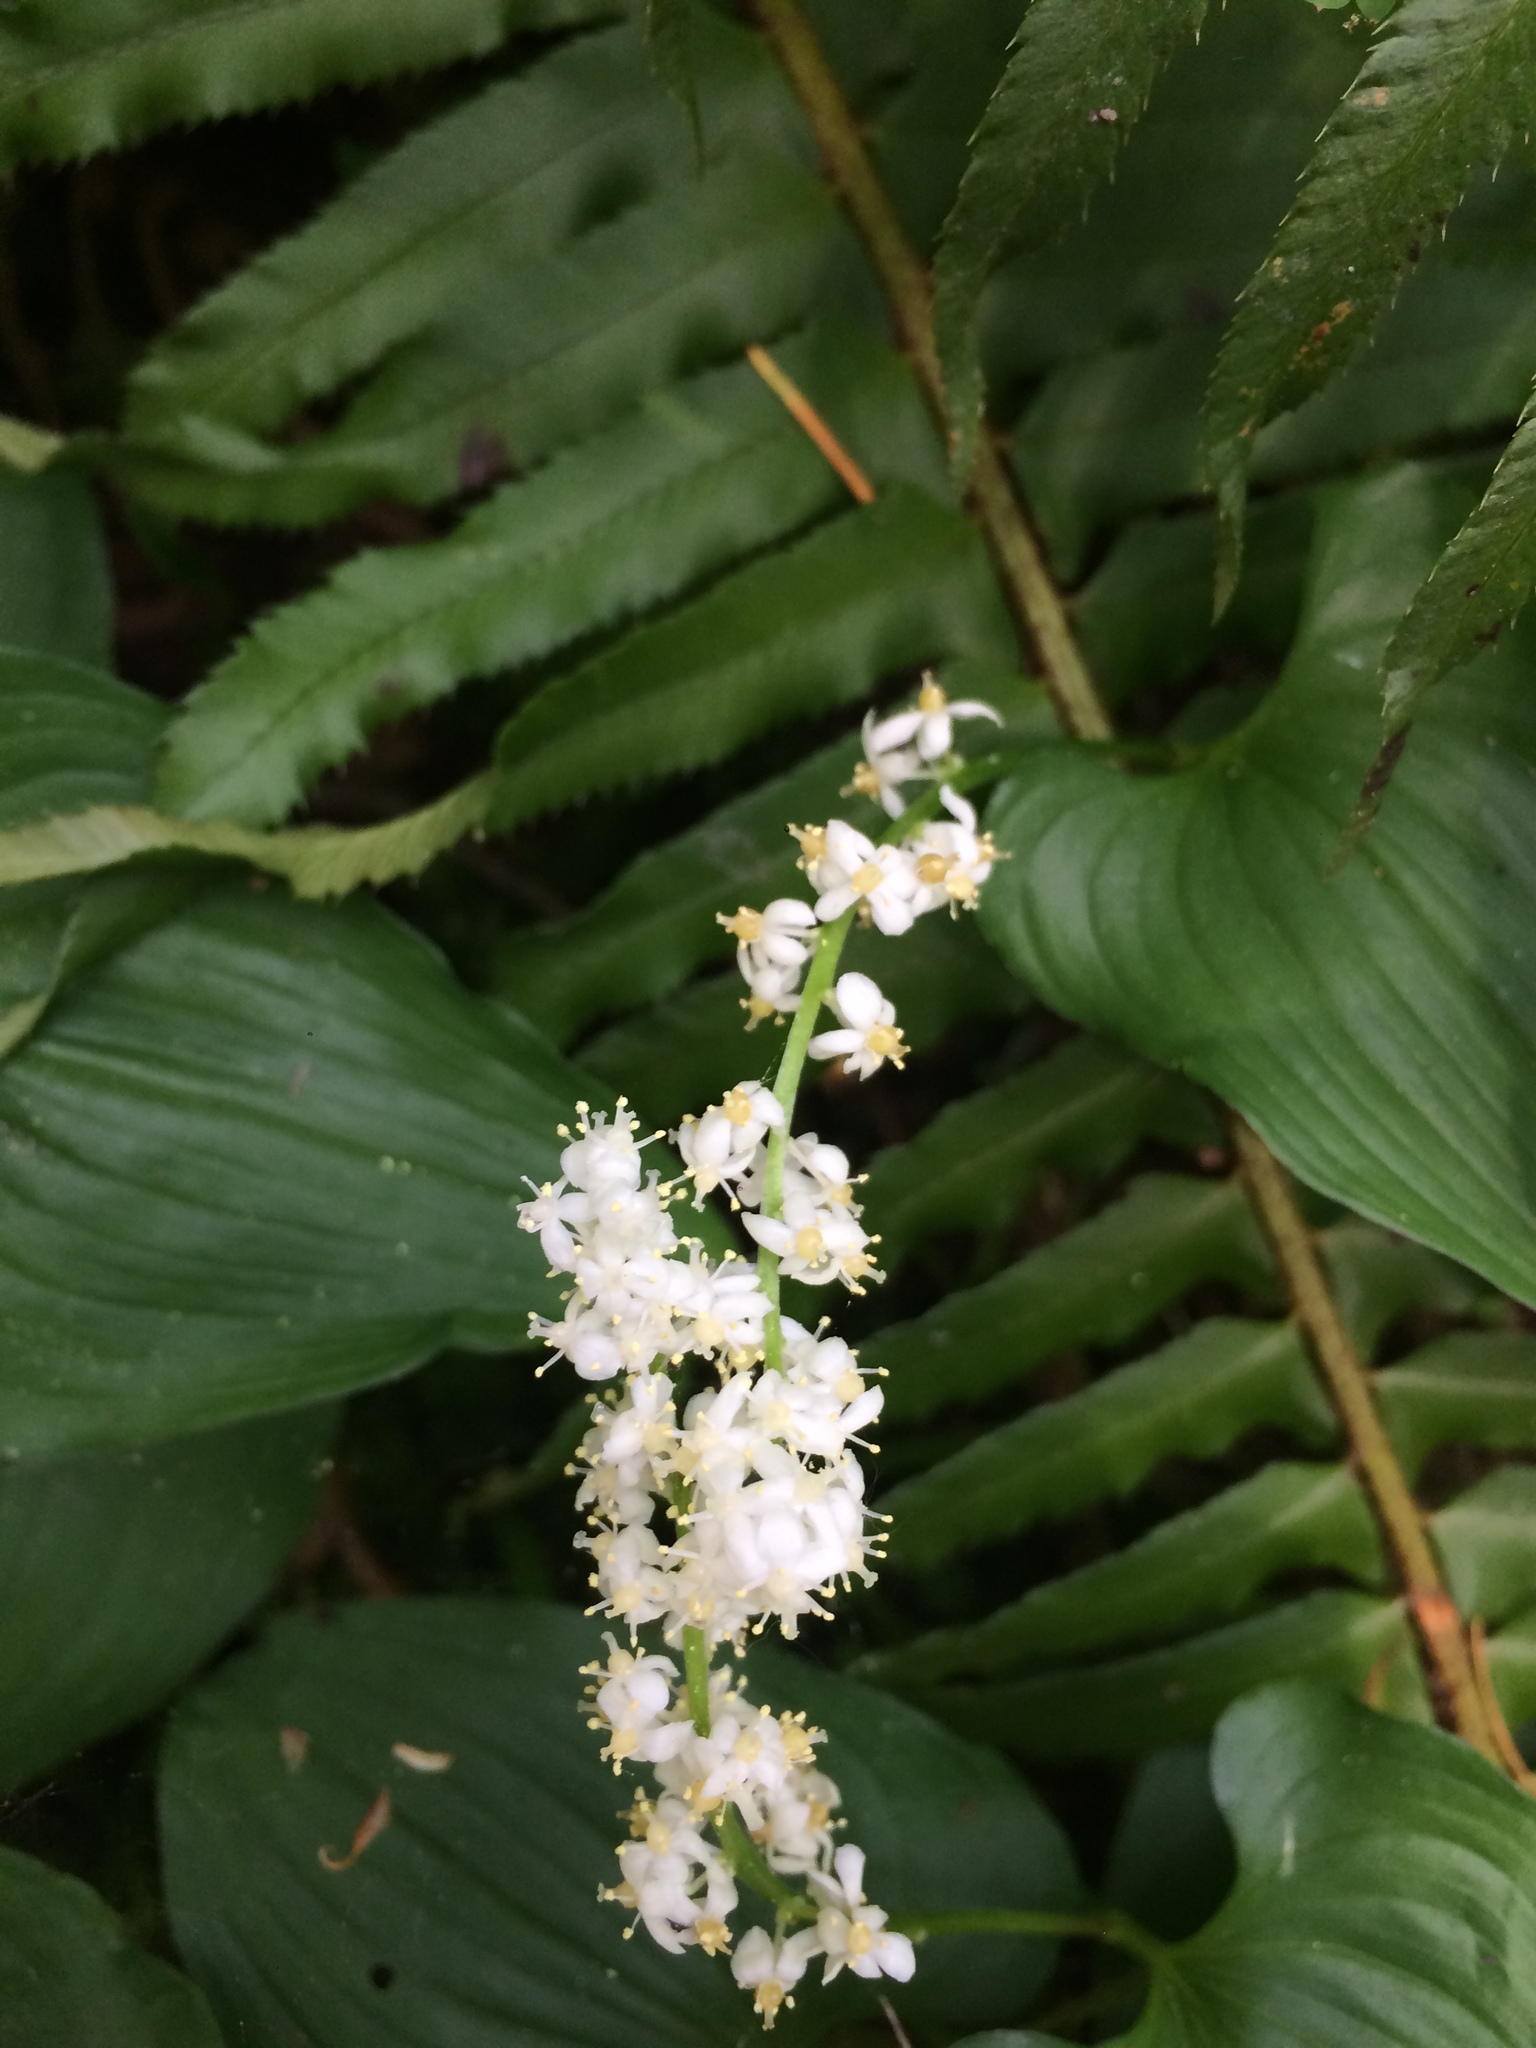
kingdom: Plantae
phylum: Tracheophyta
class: Liliopsida
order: Asparagales
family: Asparagaceae
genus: Maianthemum
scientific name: Maianthemum dilatatum
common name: False lily-of-the-valley
